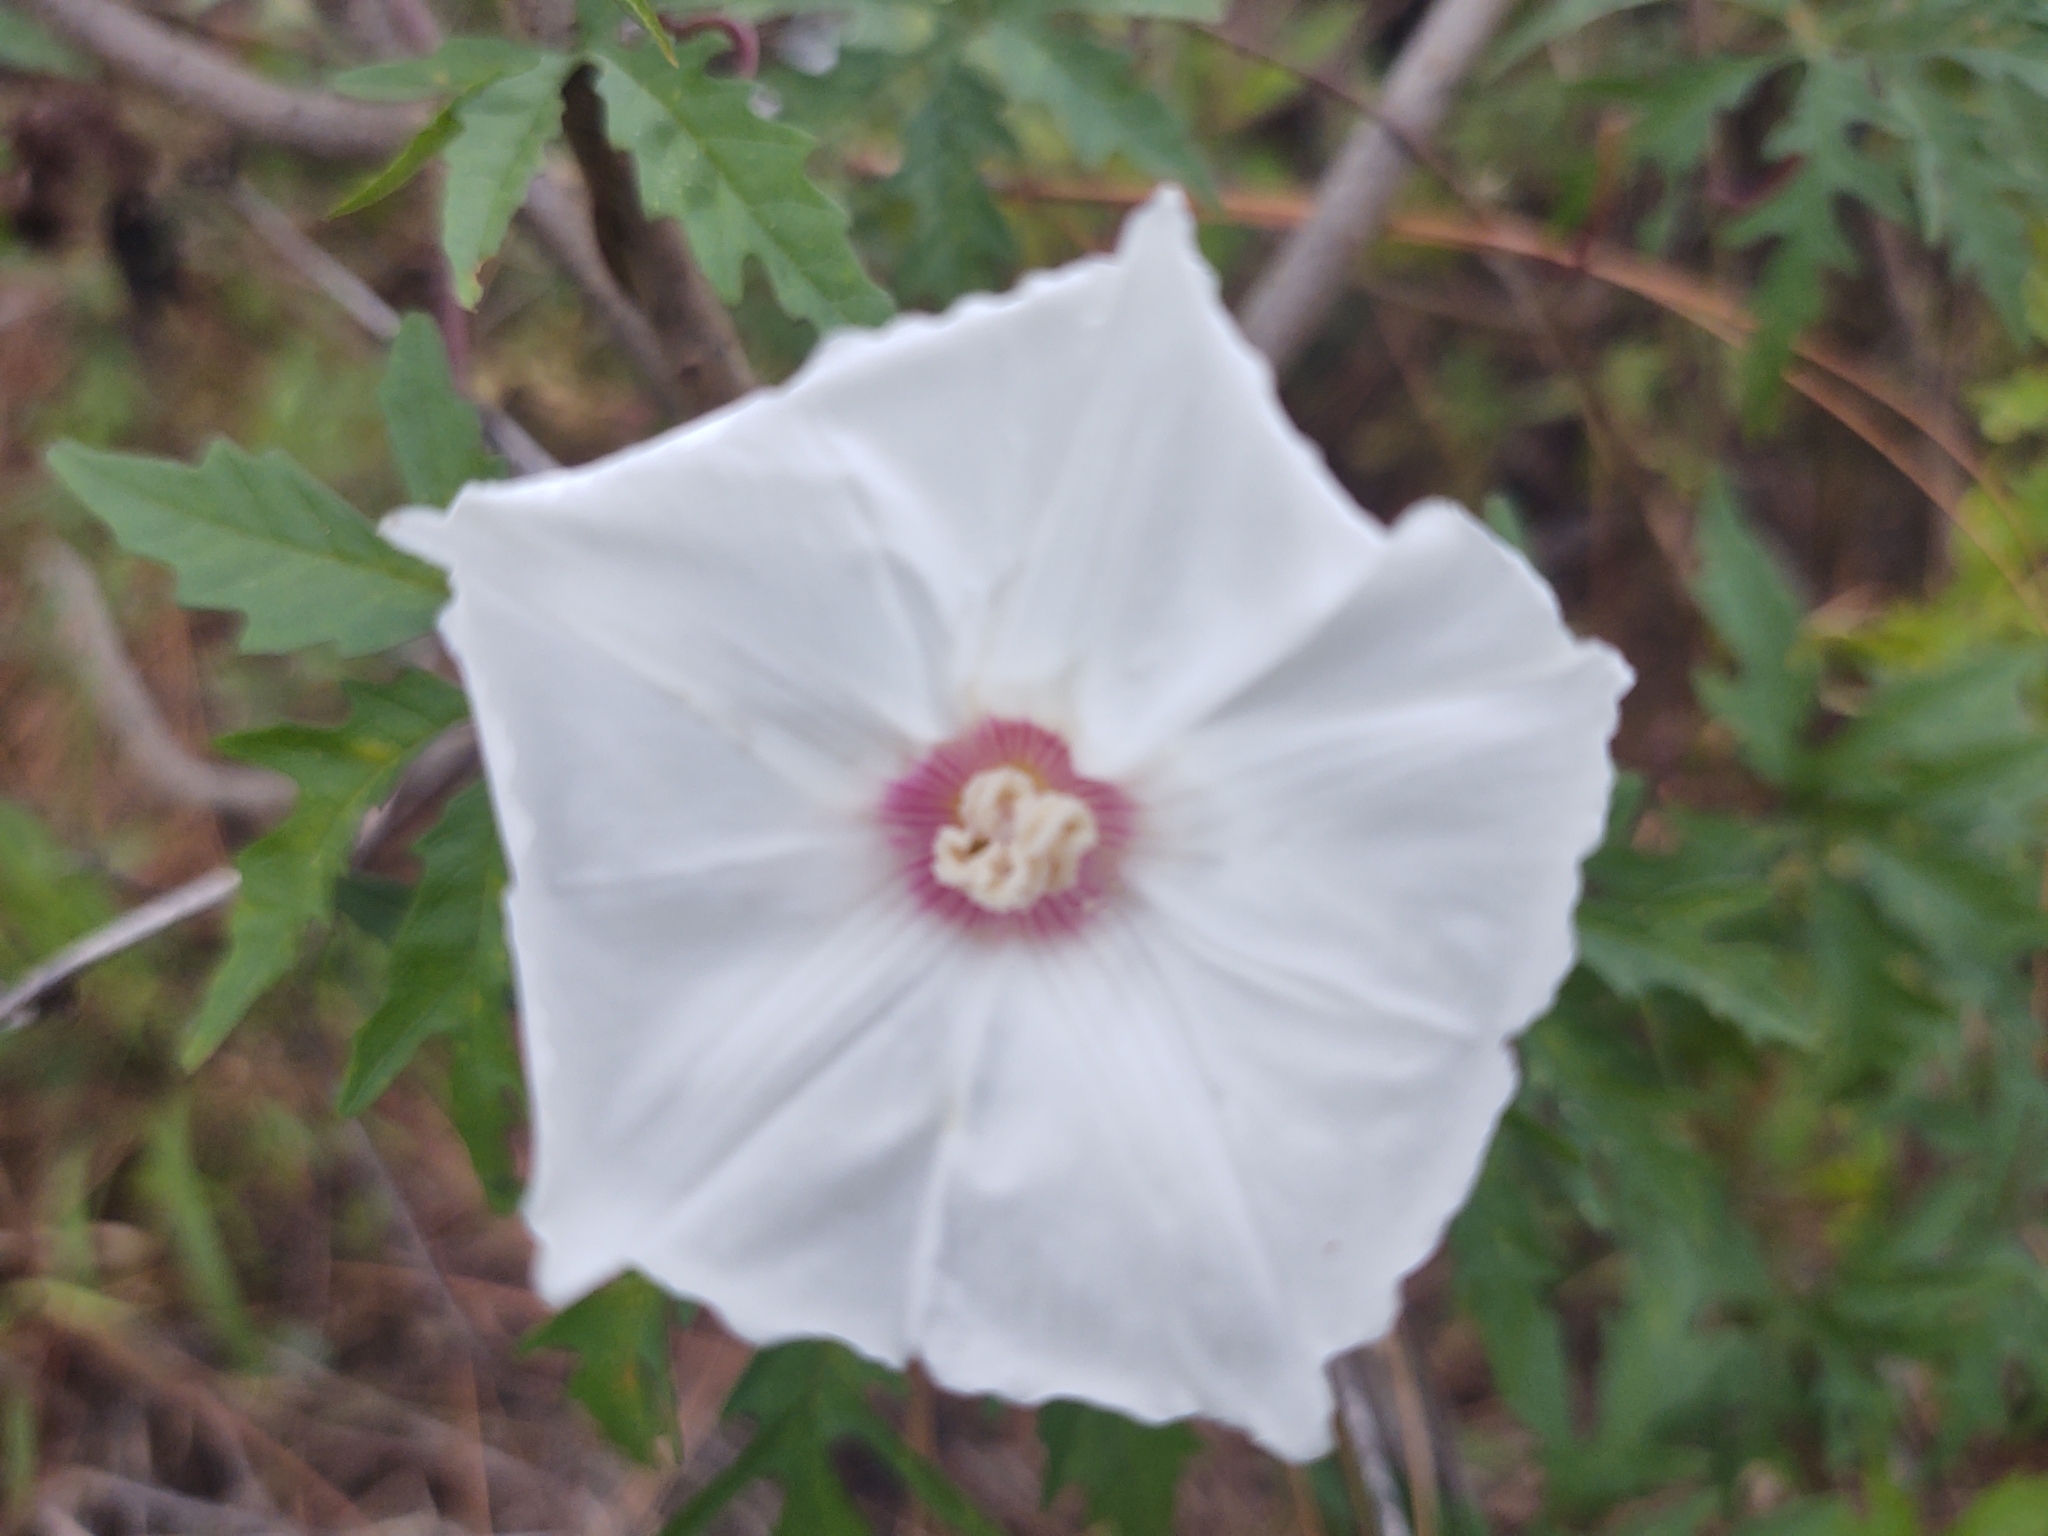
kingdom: Plantae
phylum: Tracheophyta
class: Magnoliopsida
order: Solanales
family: Convolvulaceae
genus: Distimake
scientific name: Distimake dissectus
